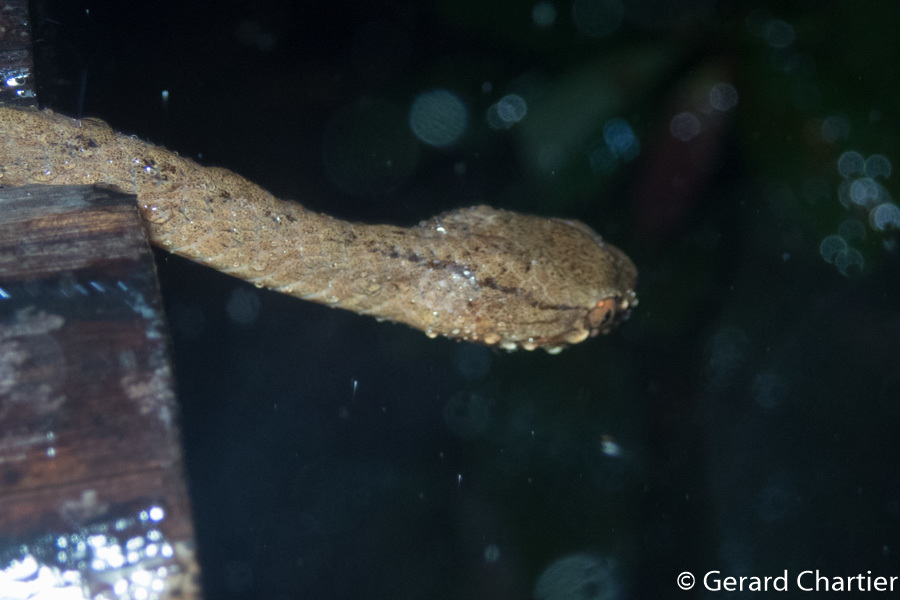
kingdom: Animalia
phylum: Chordata
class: Squamata
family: Pareidae
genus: Pareas
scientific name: Pareas carinatus
